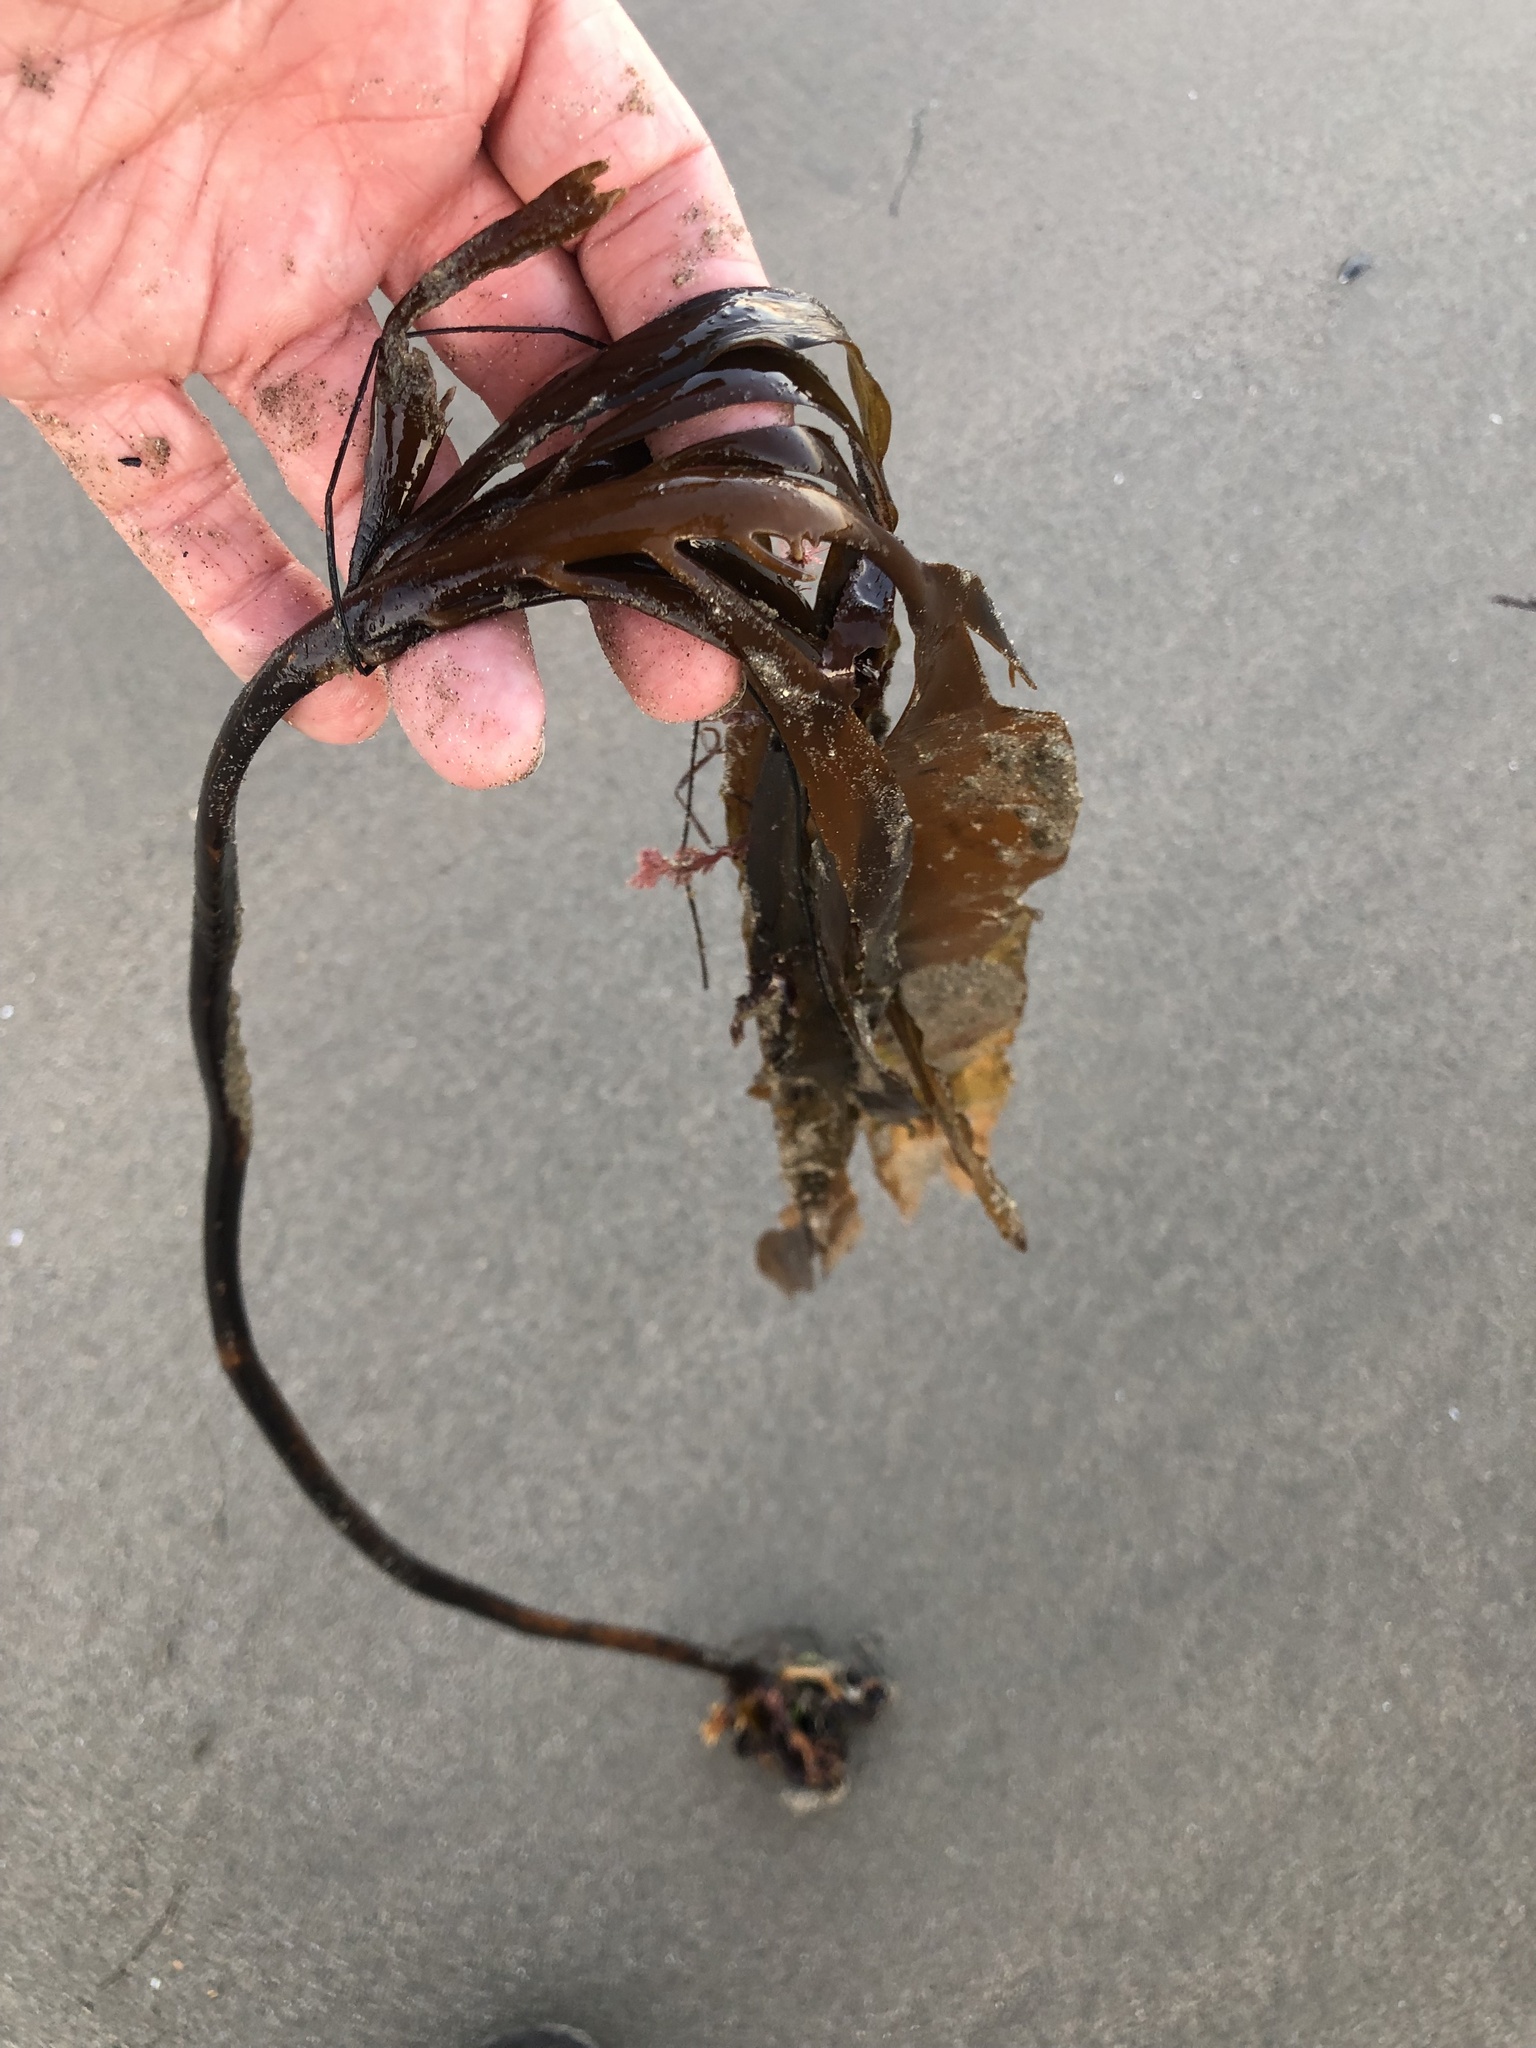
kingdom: Chromista
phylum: Ochrophyta
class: Phaeophyceae
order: Laminariales
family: Alariaceae
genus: Pterygophora
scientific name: Pterygophora californica
